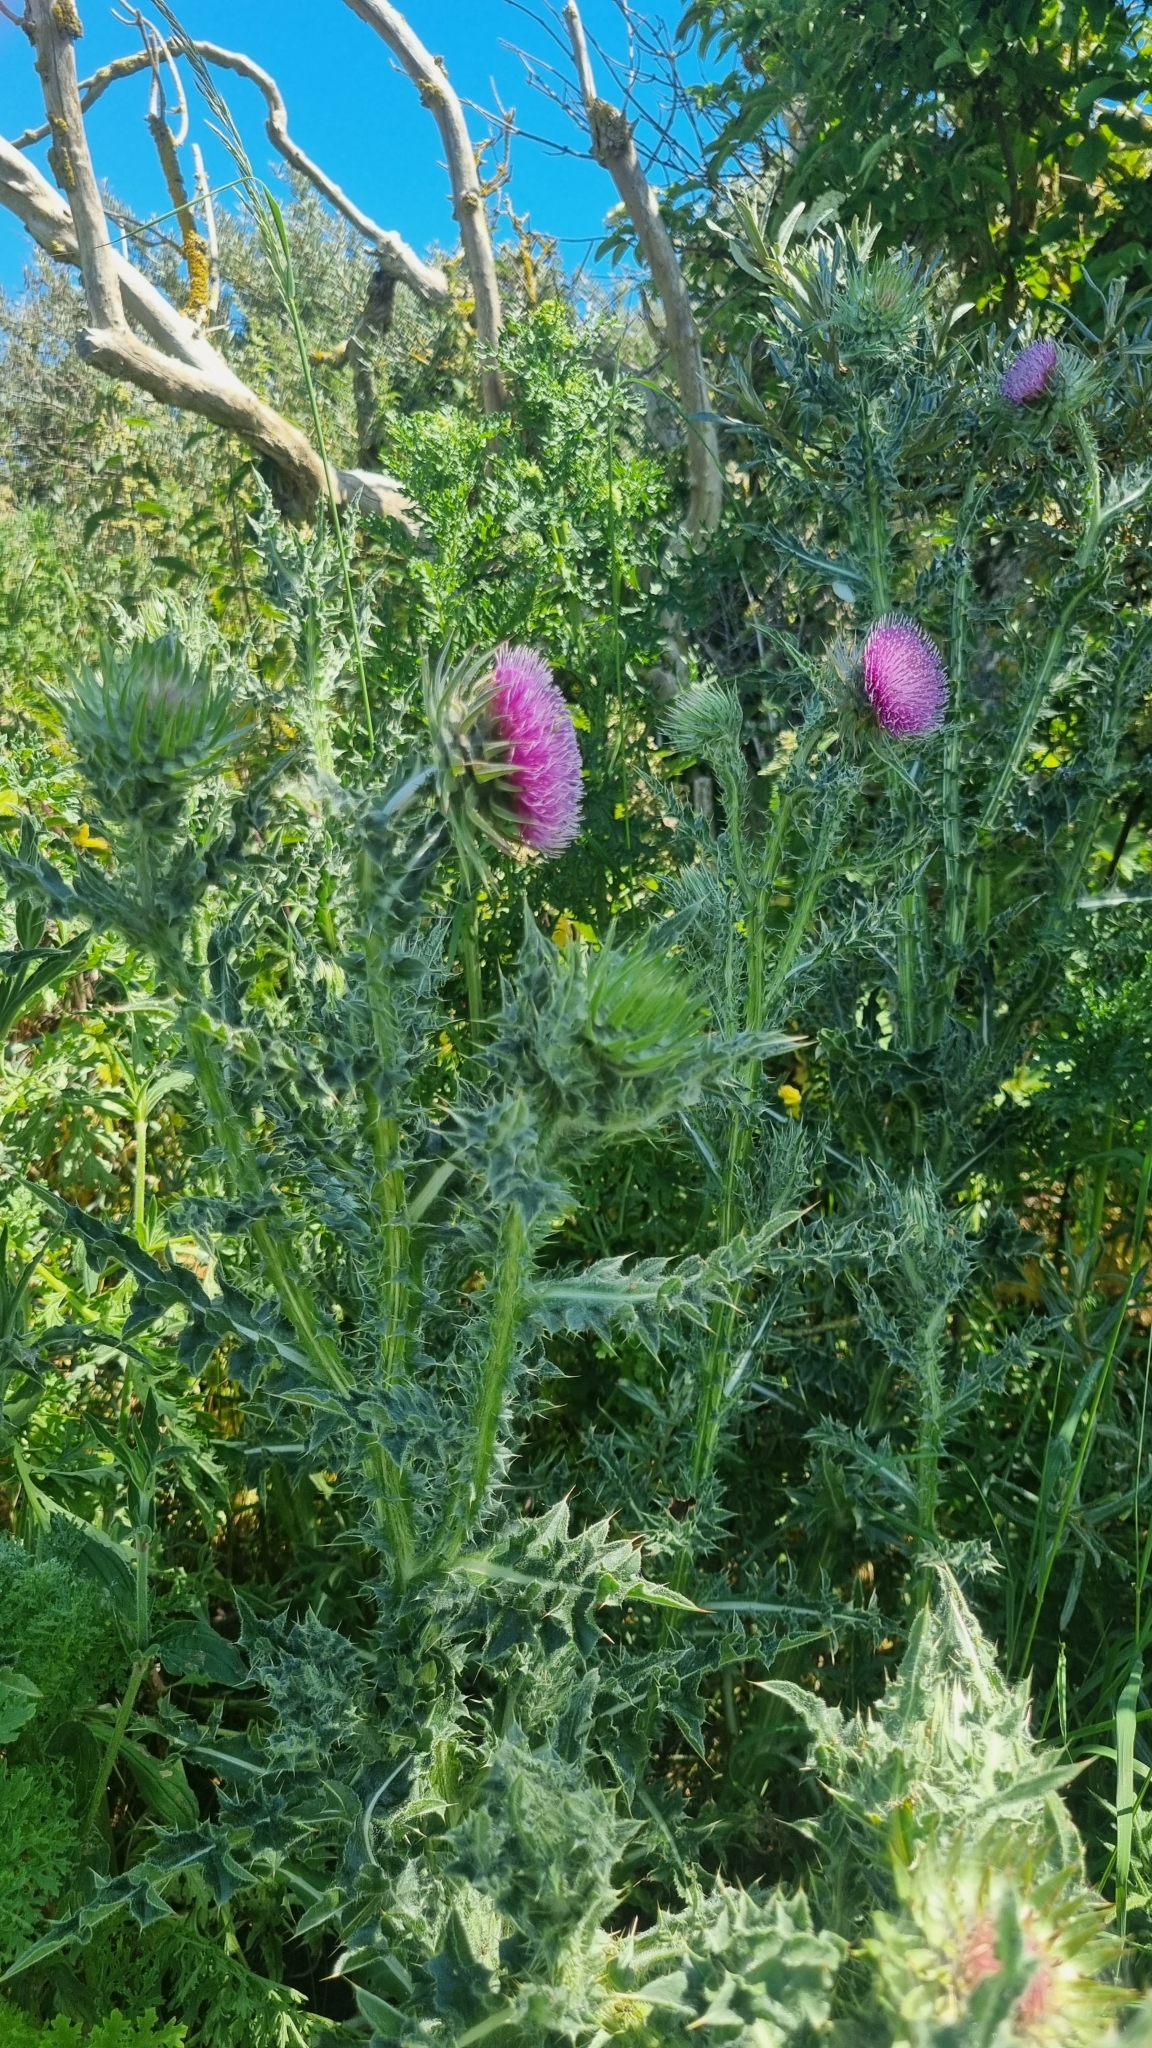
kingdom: Plantae
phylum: Tracheophyta
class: Magnoliopsida
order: Asterales
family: Asteraceae
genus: Carduus
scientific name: Carduus nutans
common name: Musk thistle
